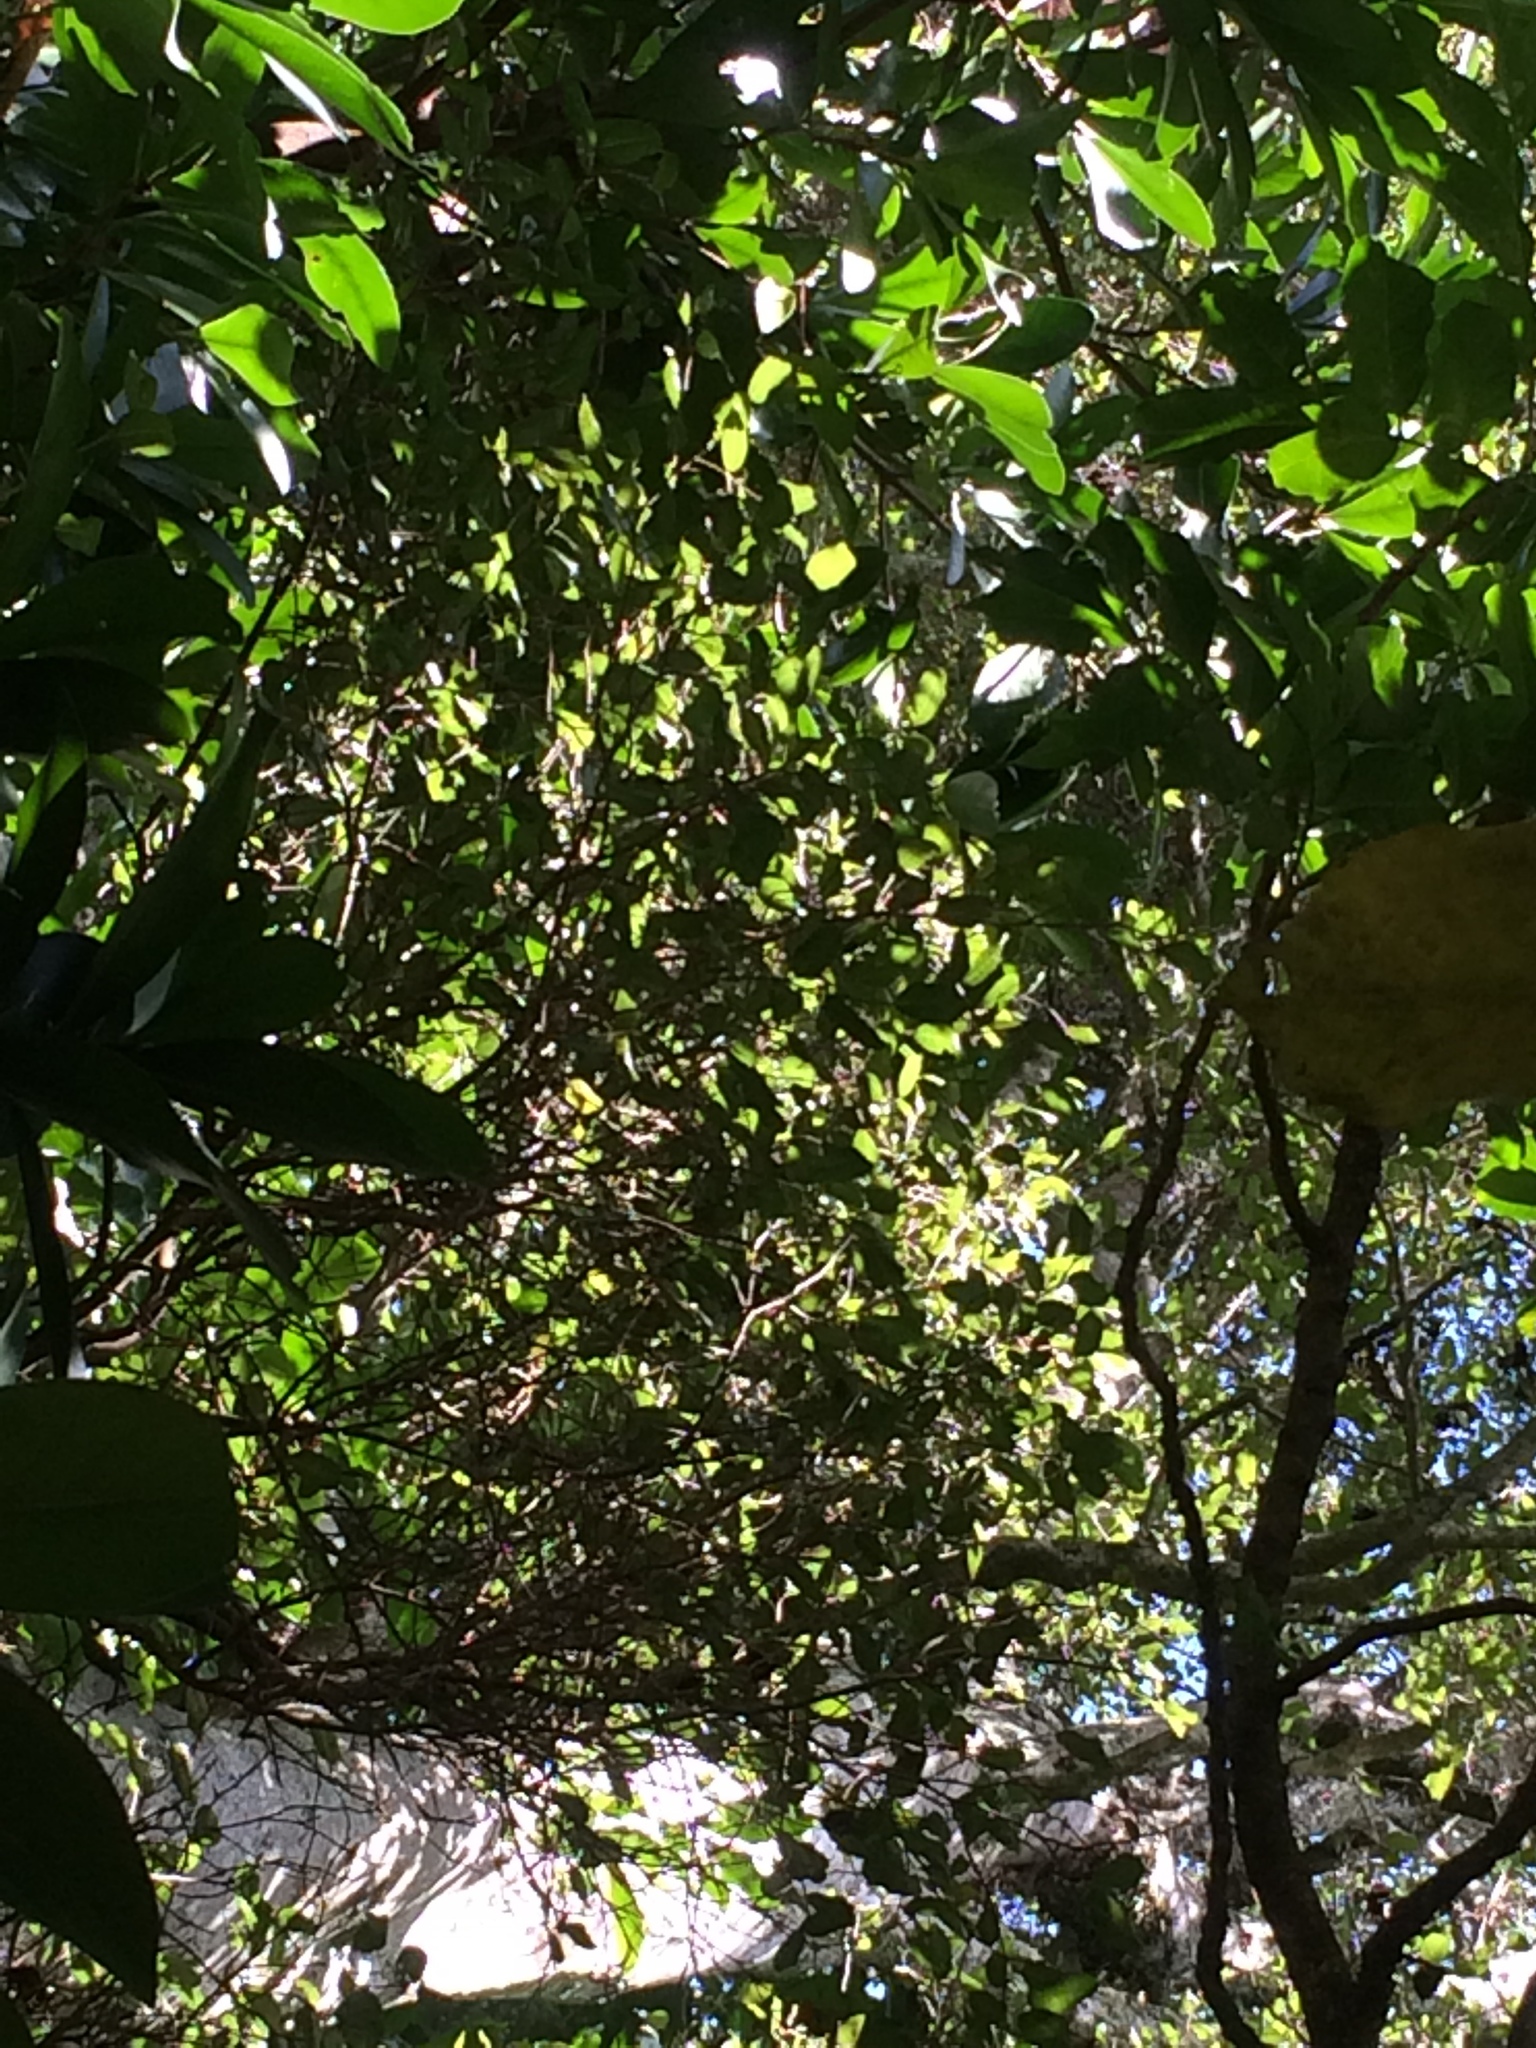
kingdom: Plantae
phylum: Tracheophyta
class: Magnoliopsida
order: Rosales
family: Moraceae
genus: Paratrophis
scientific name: Paratrophis banksii
